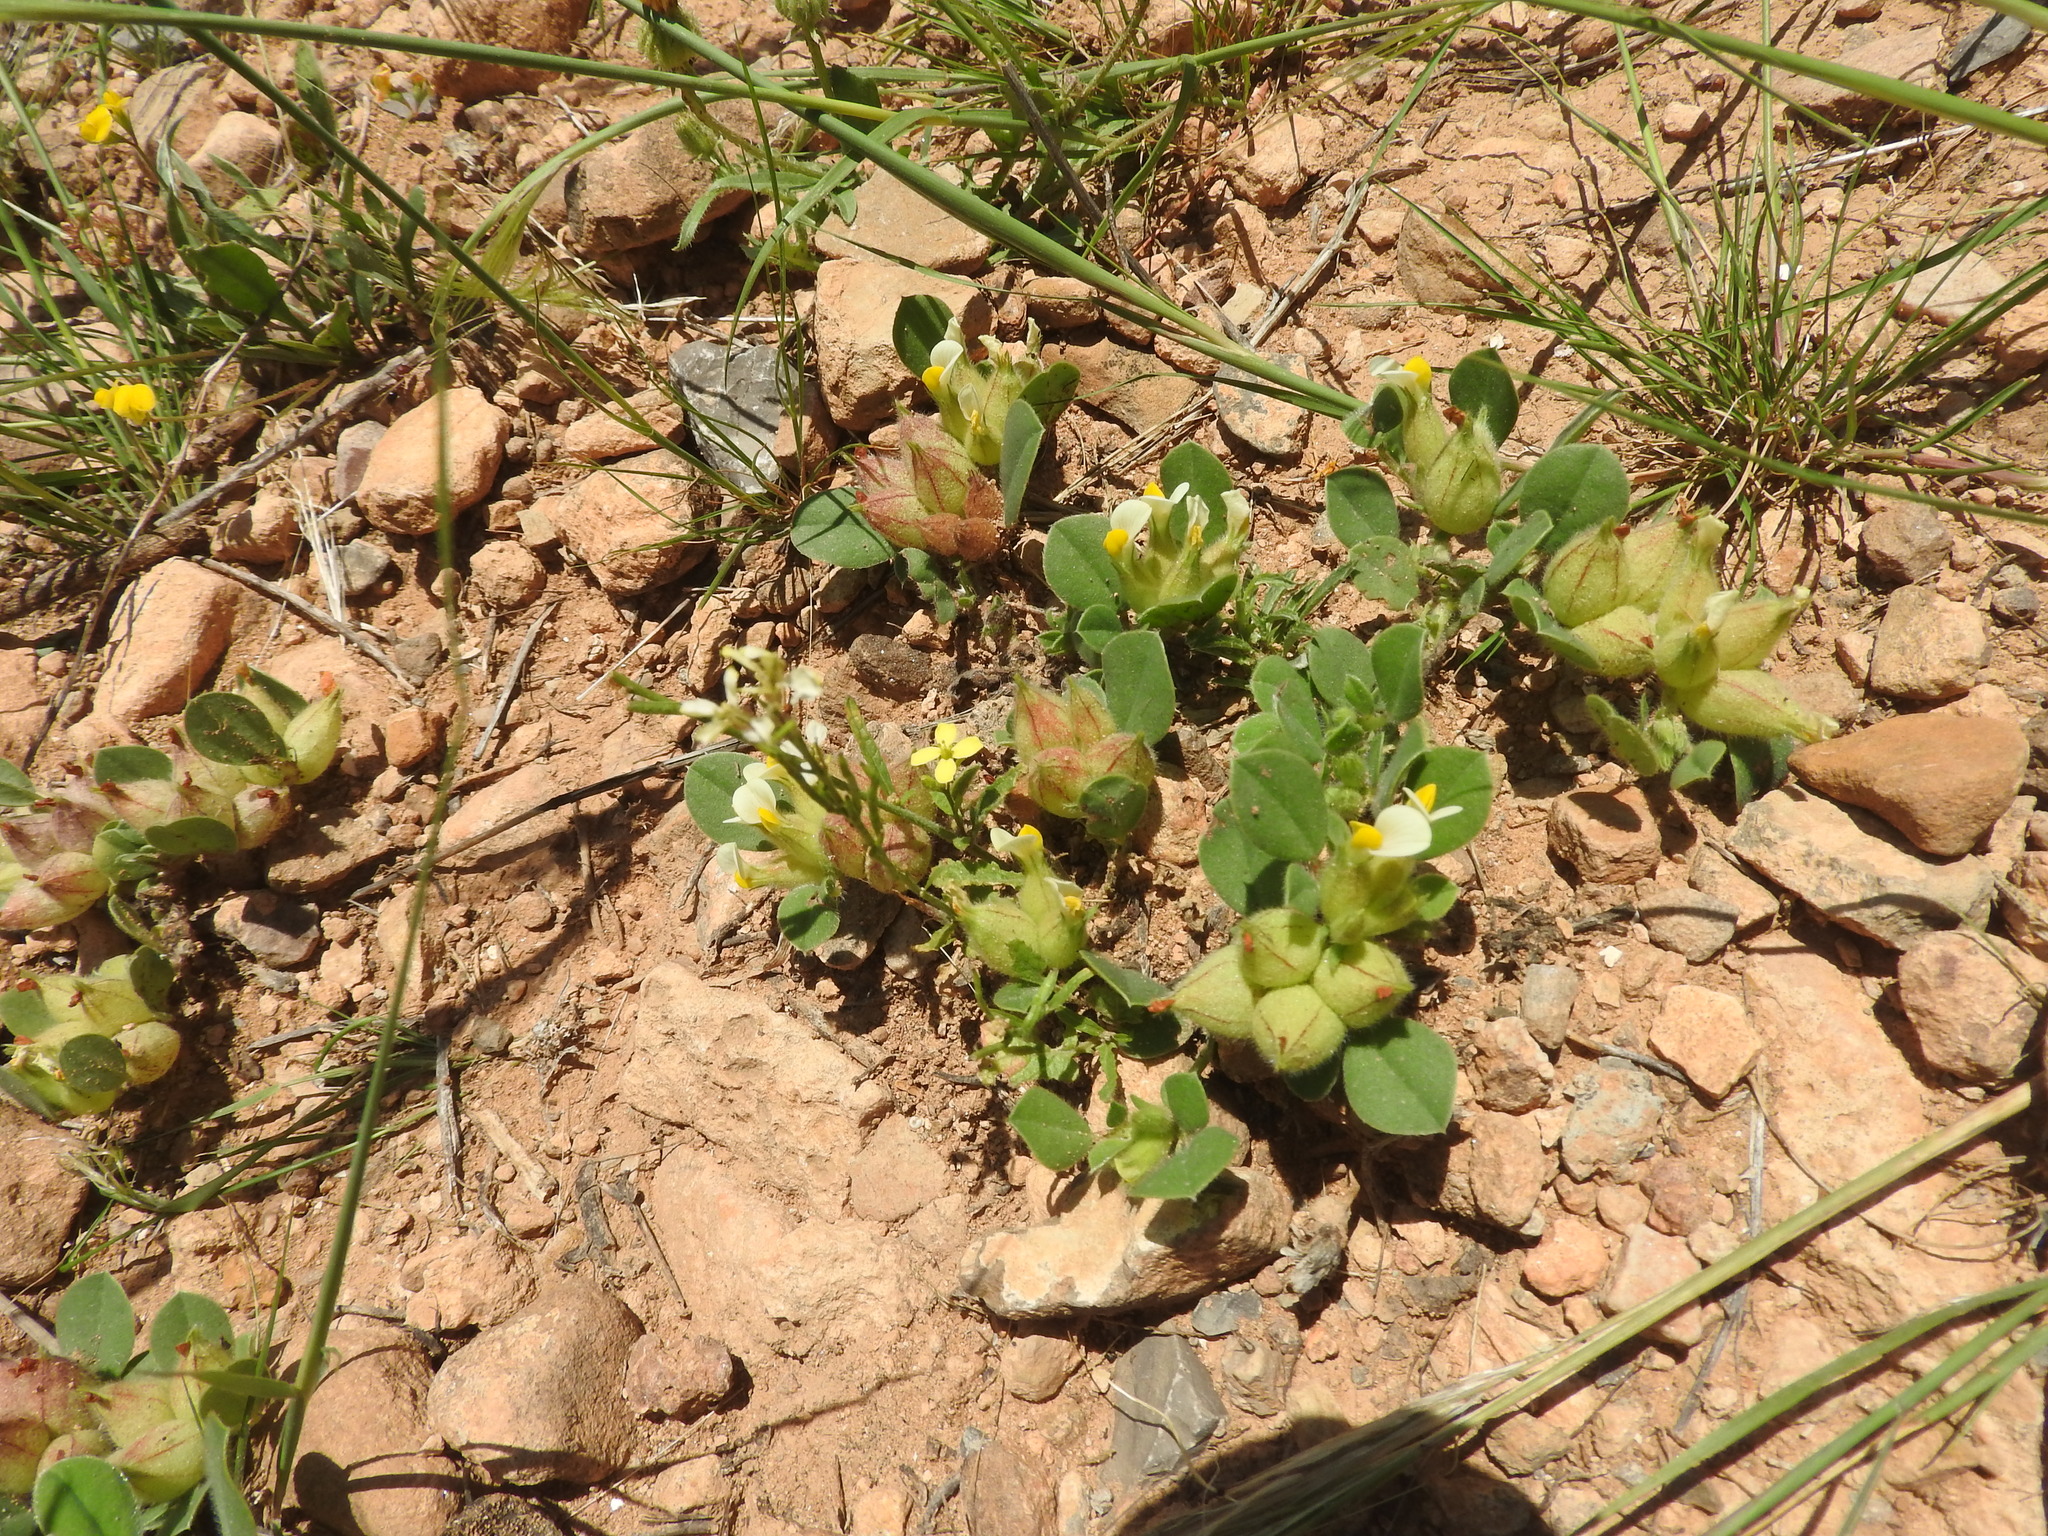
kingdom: Plantae
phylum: Tracheophyta
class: Magnoliopsida
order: Fabales
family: Fabaceae
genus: Tripodion
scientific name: Tripodion tetraphyllum
